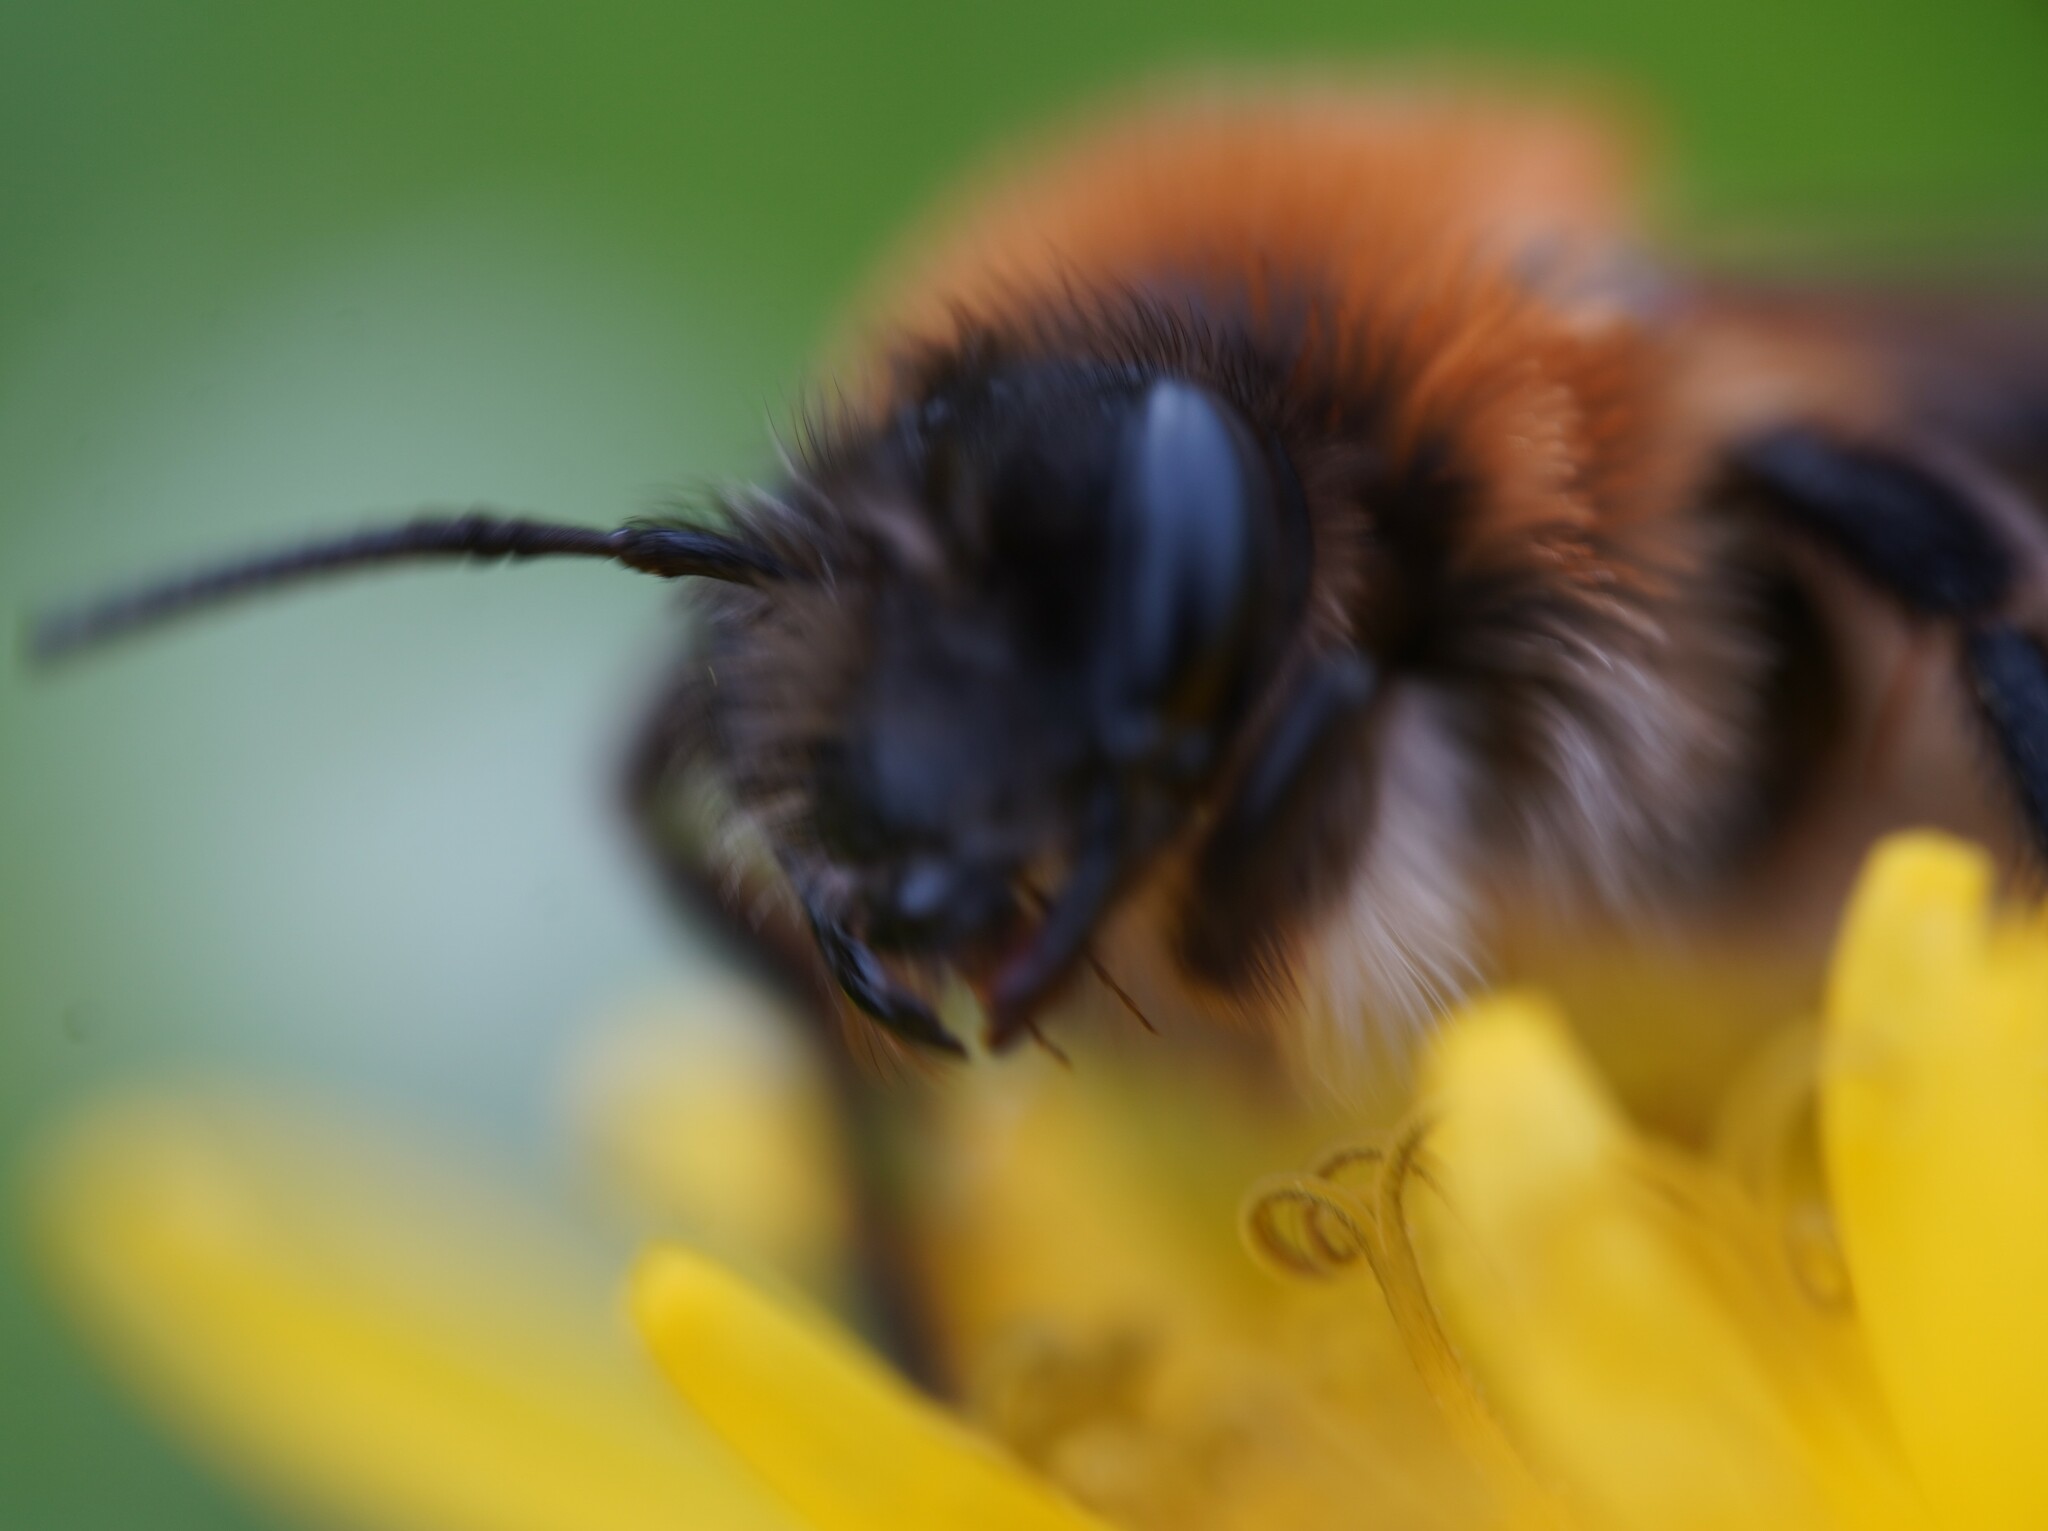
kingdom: Animalia
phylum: Arthropoda
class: Insecta
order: Hymenoptera
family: Andrenidae
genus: Andrena
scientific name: Andrena nitida
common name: Grey-patched mining bee
